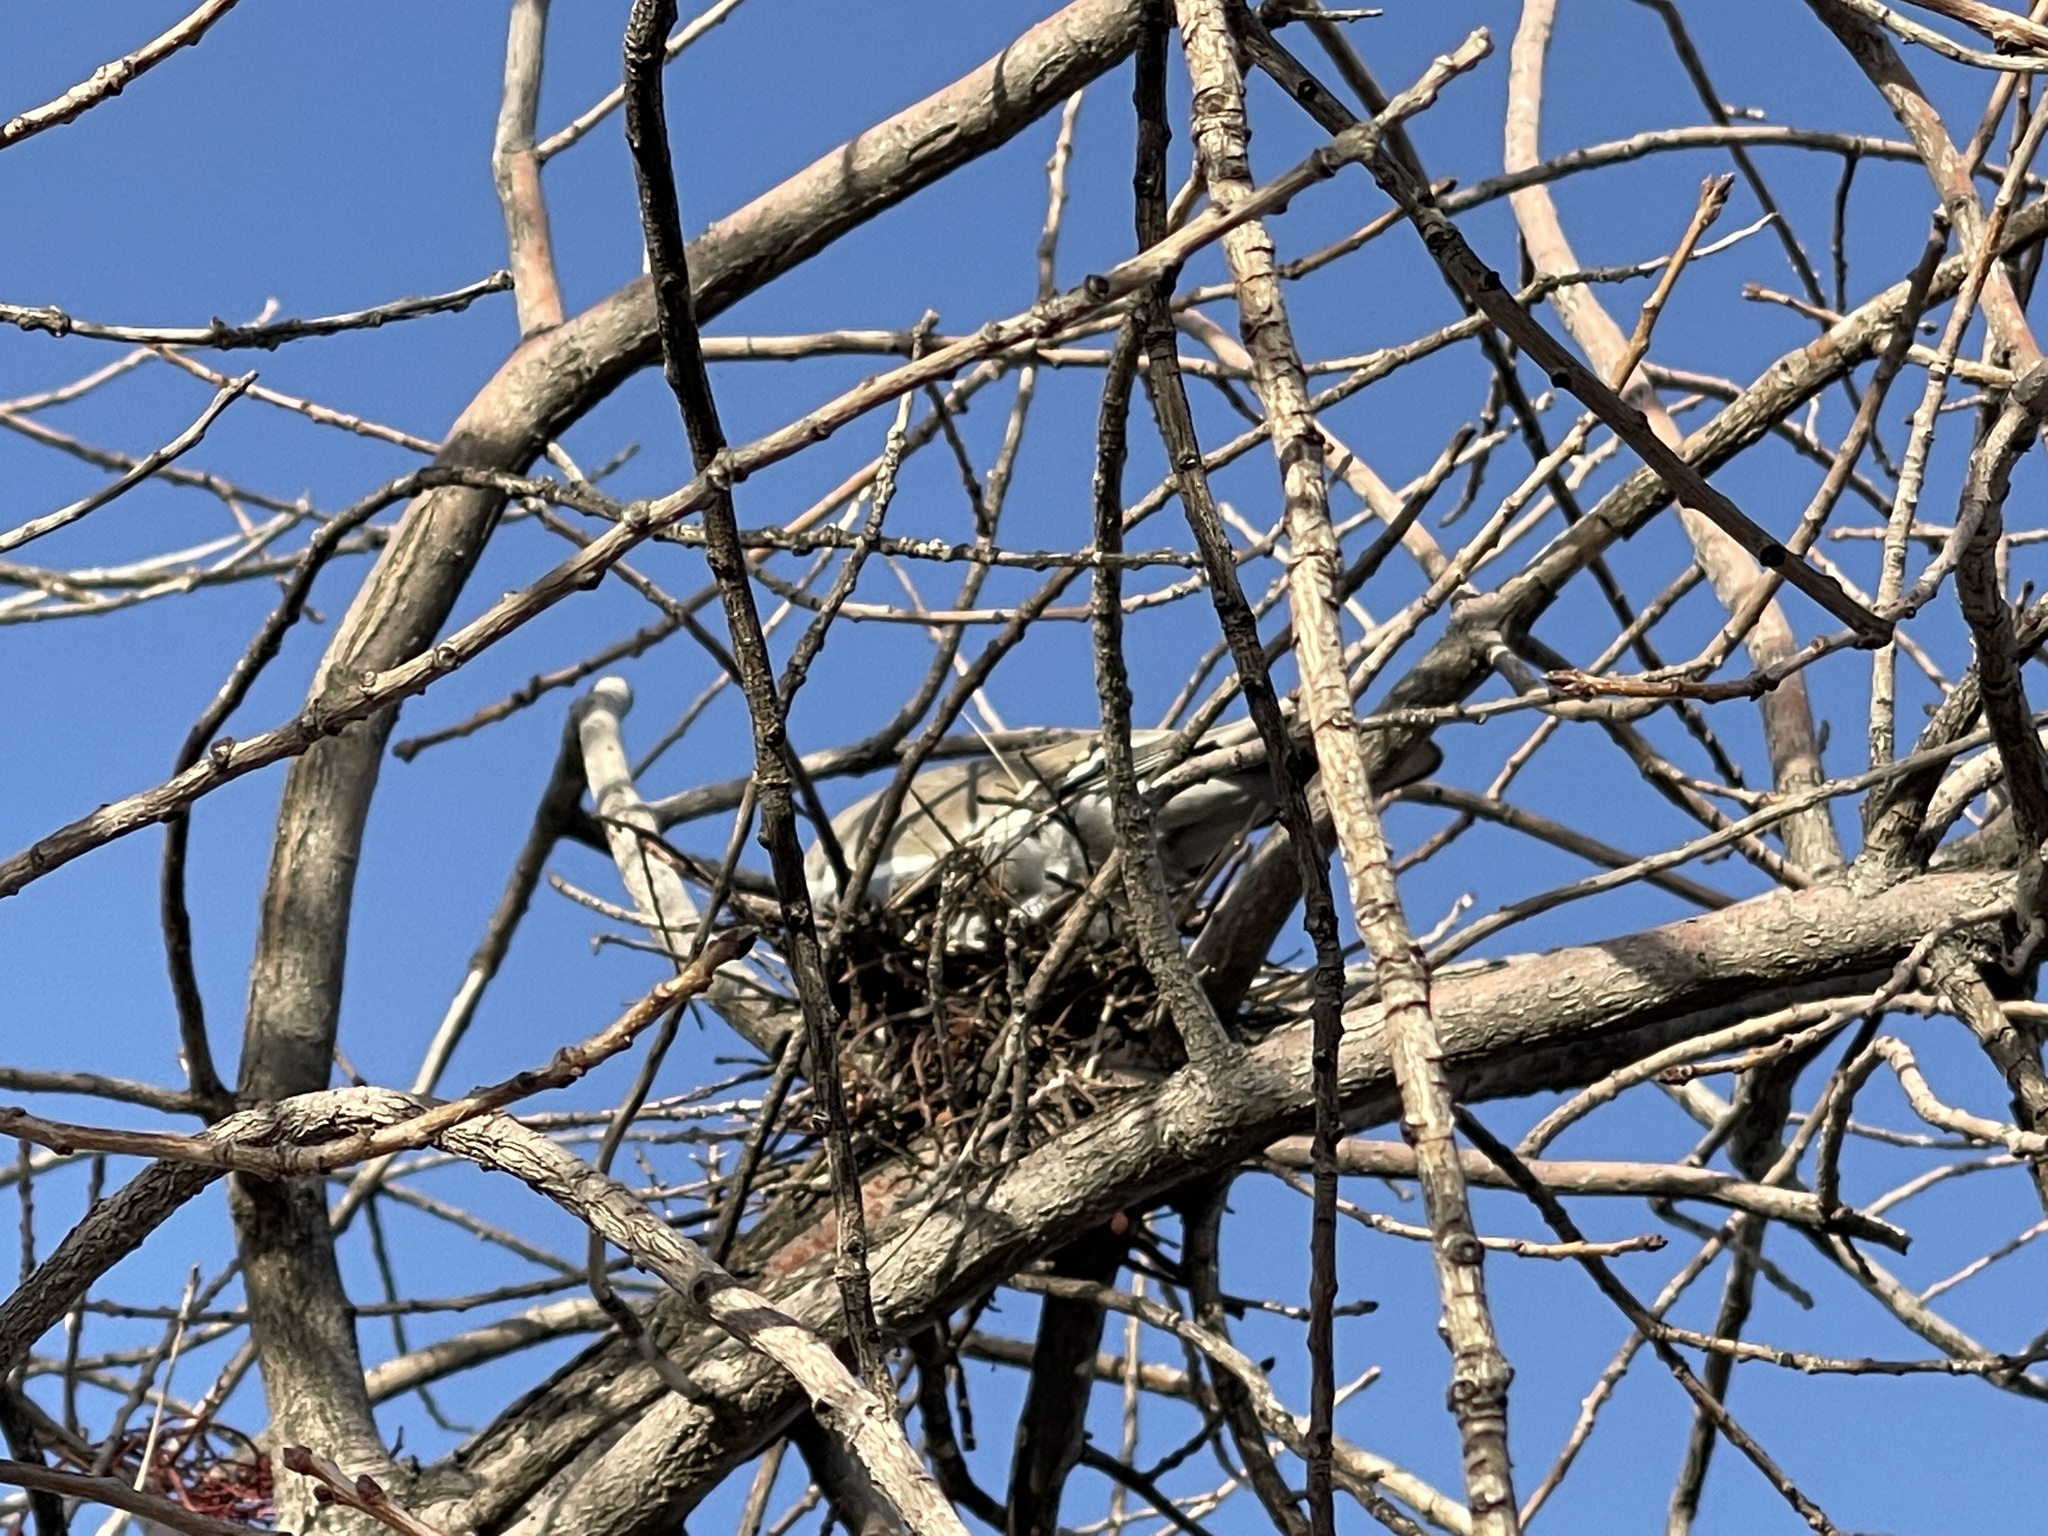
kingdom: Animalia
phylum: Chordata
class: Aves
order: Columbiformes
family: Columbidae
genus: Zenaida
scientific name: Zenaida asiatica
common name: White-winged dove
